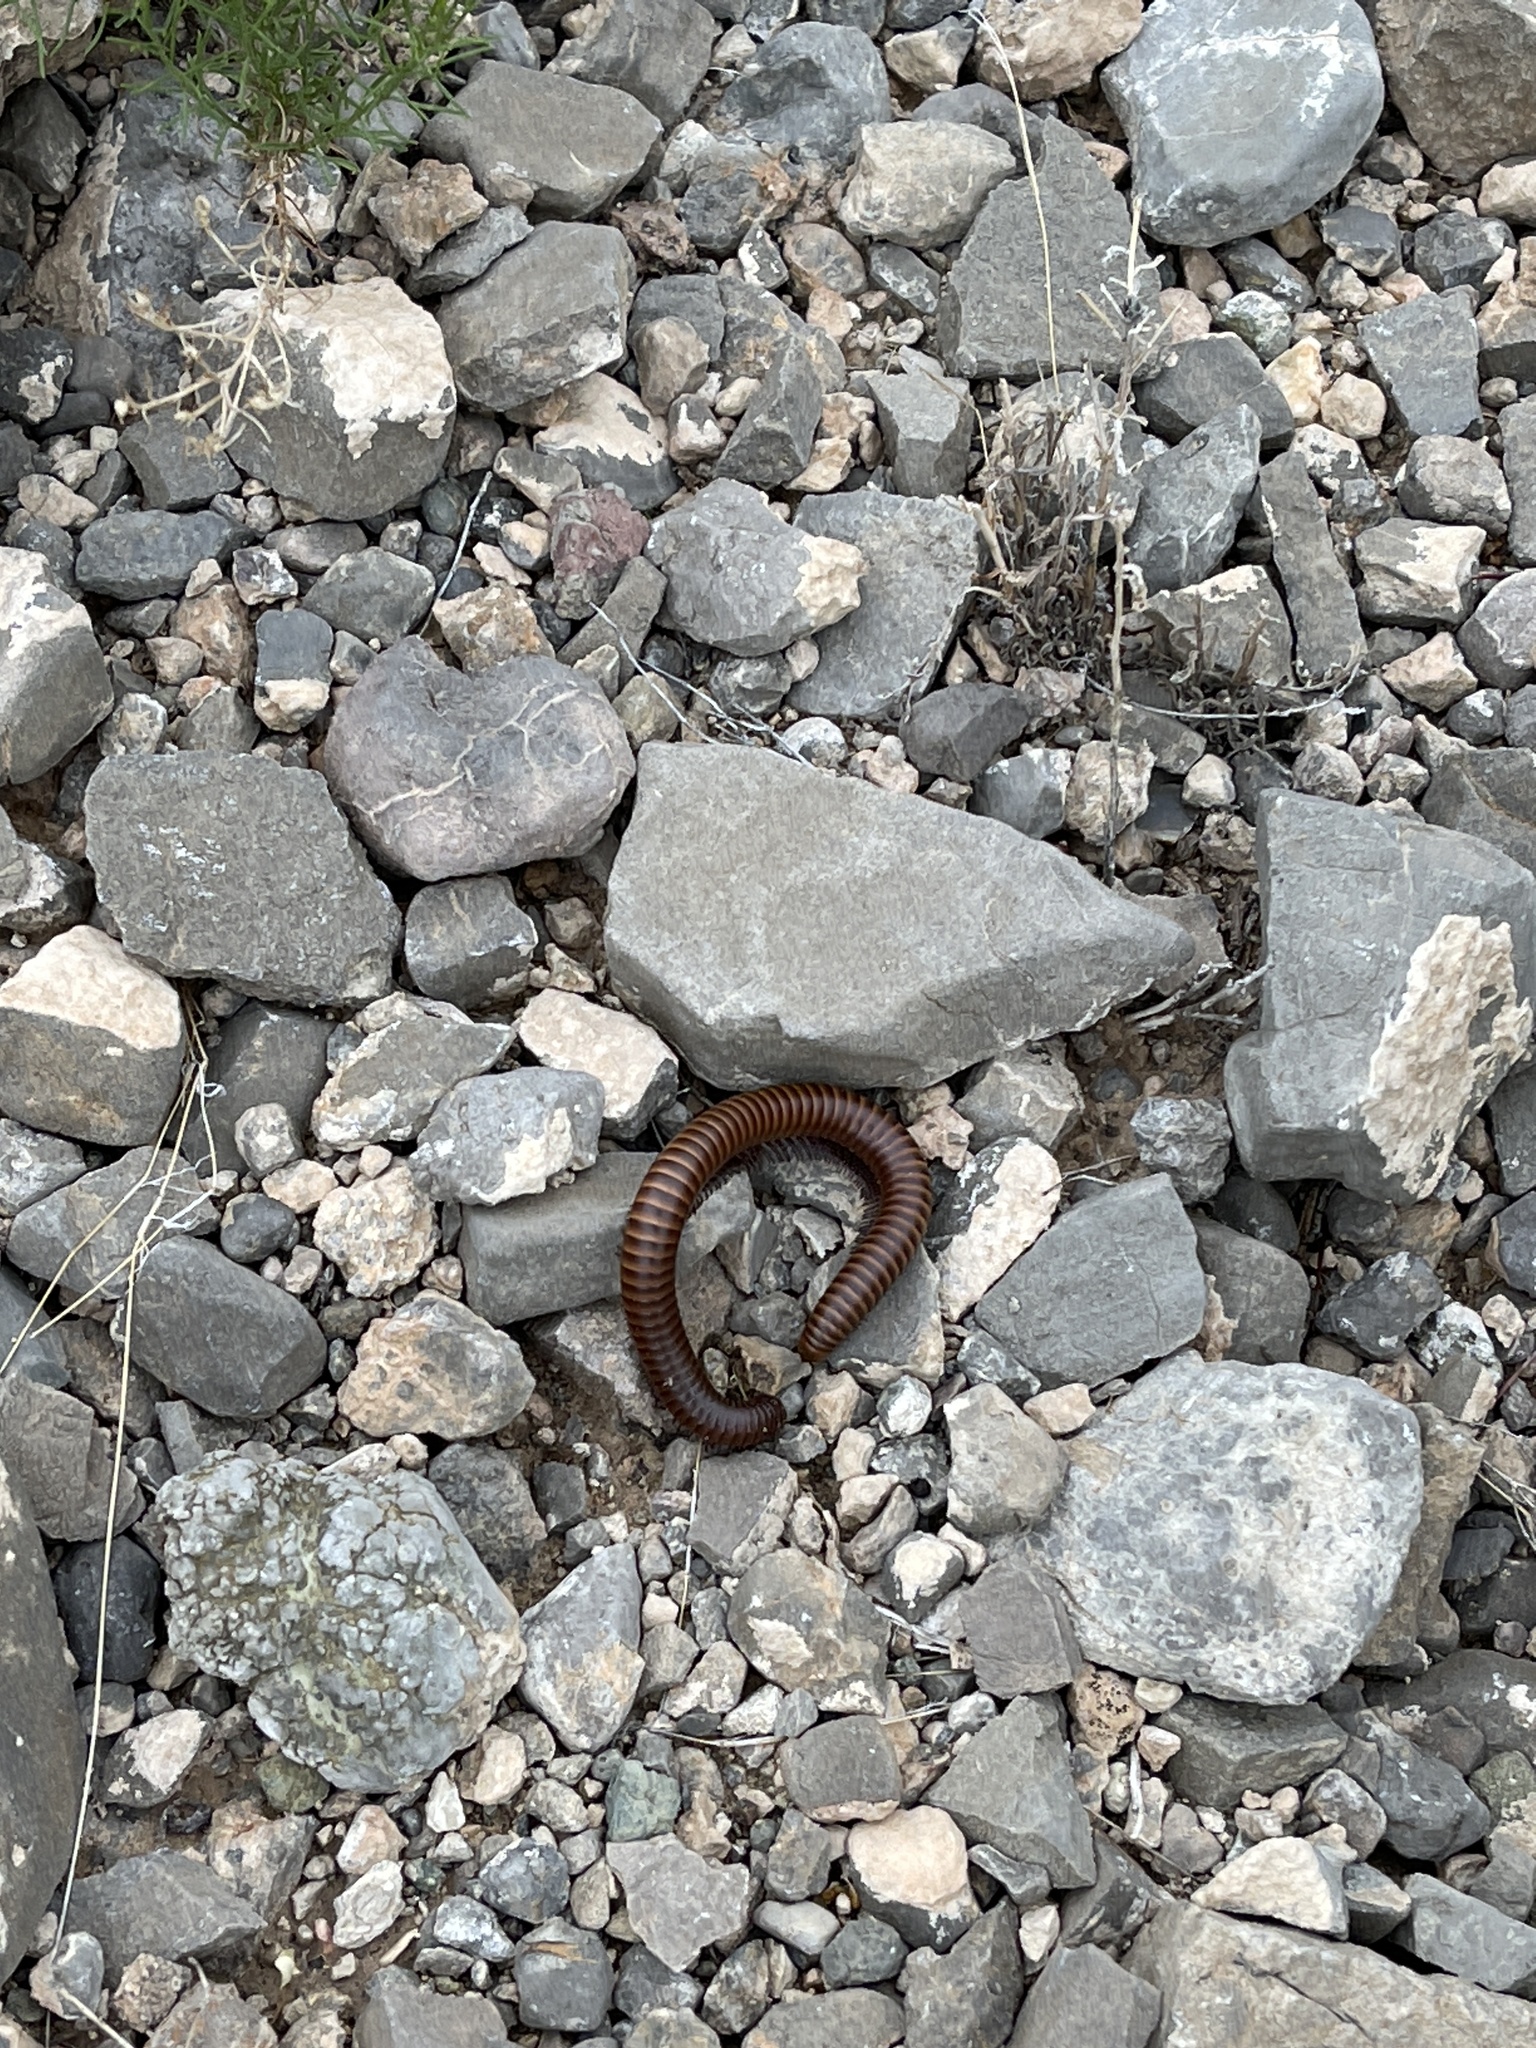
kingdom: Animalia
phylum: Arthropoda
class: Diplopoda
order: Spirostreptida
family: Spirostreptidae
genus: Orthoporus
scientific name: Orthoporus ornatus
